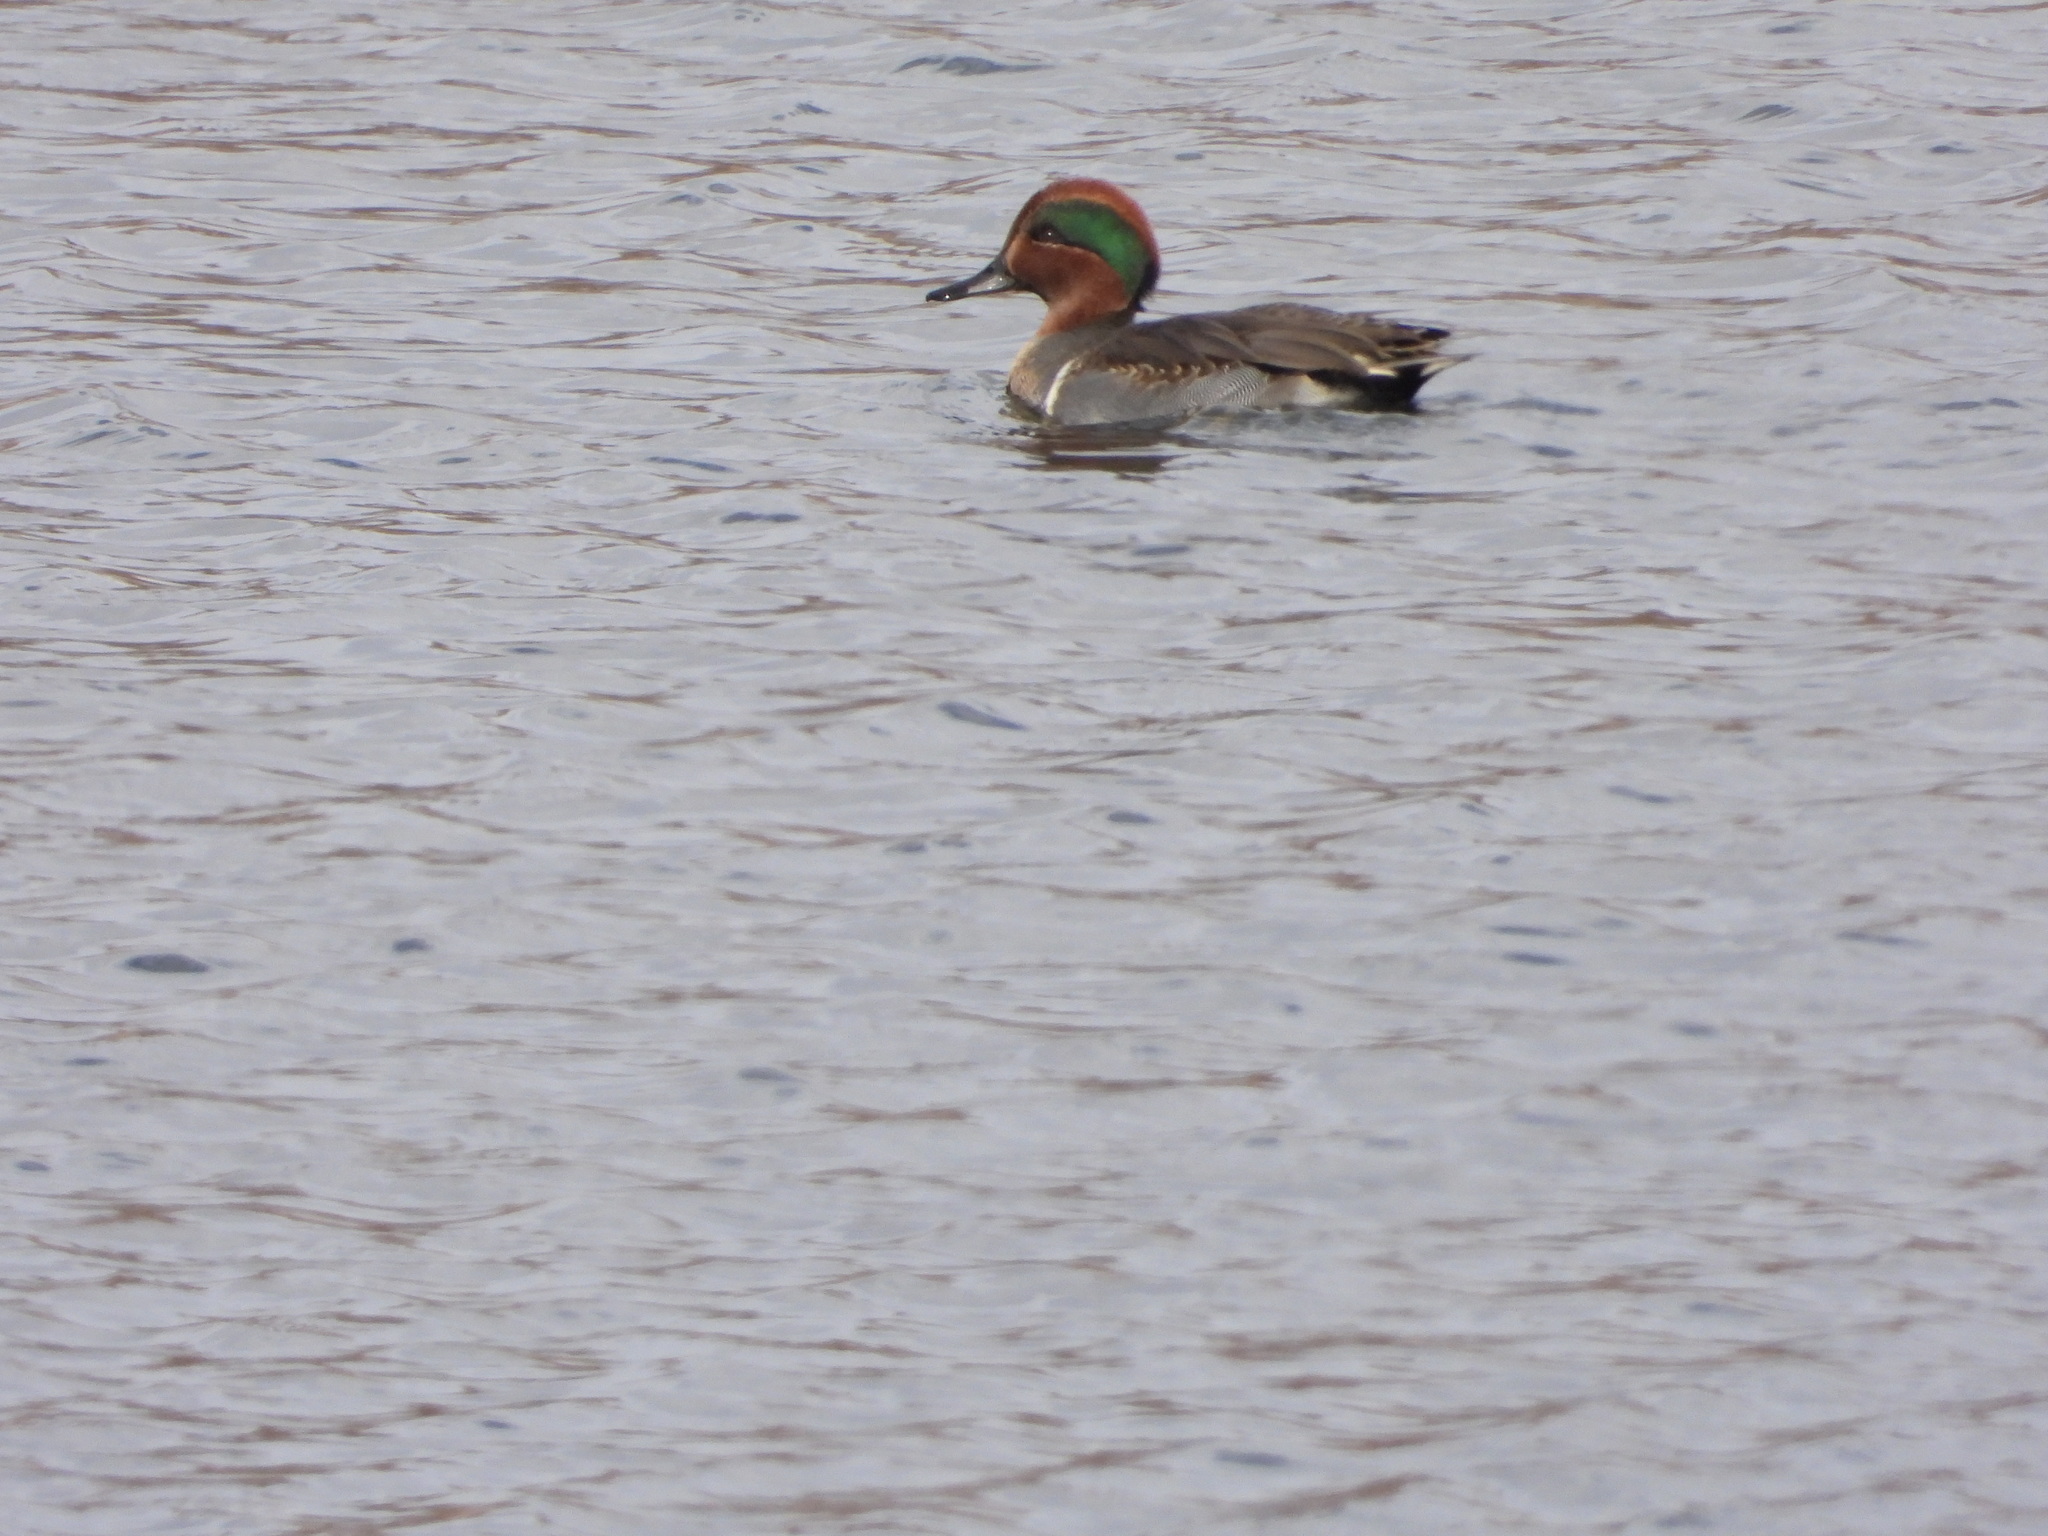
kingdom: Animalia
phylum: Chordata
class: Aves
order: Anseriformes
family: Anatidae
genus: Anas
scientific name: Anas crecca
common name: Eurasian teal
